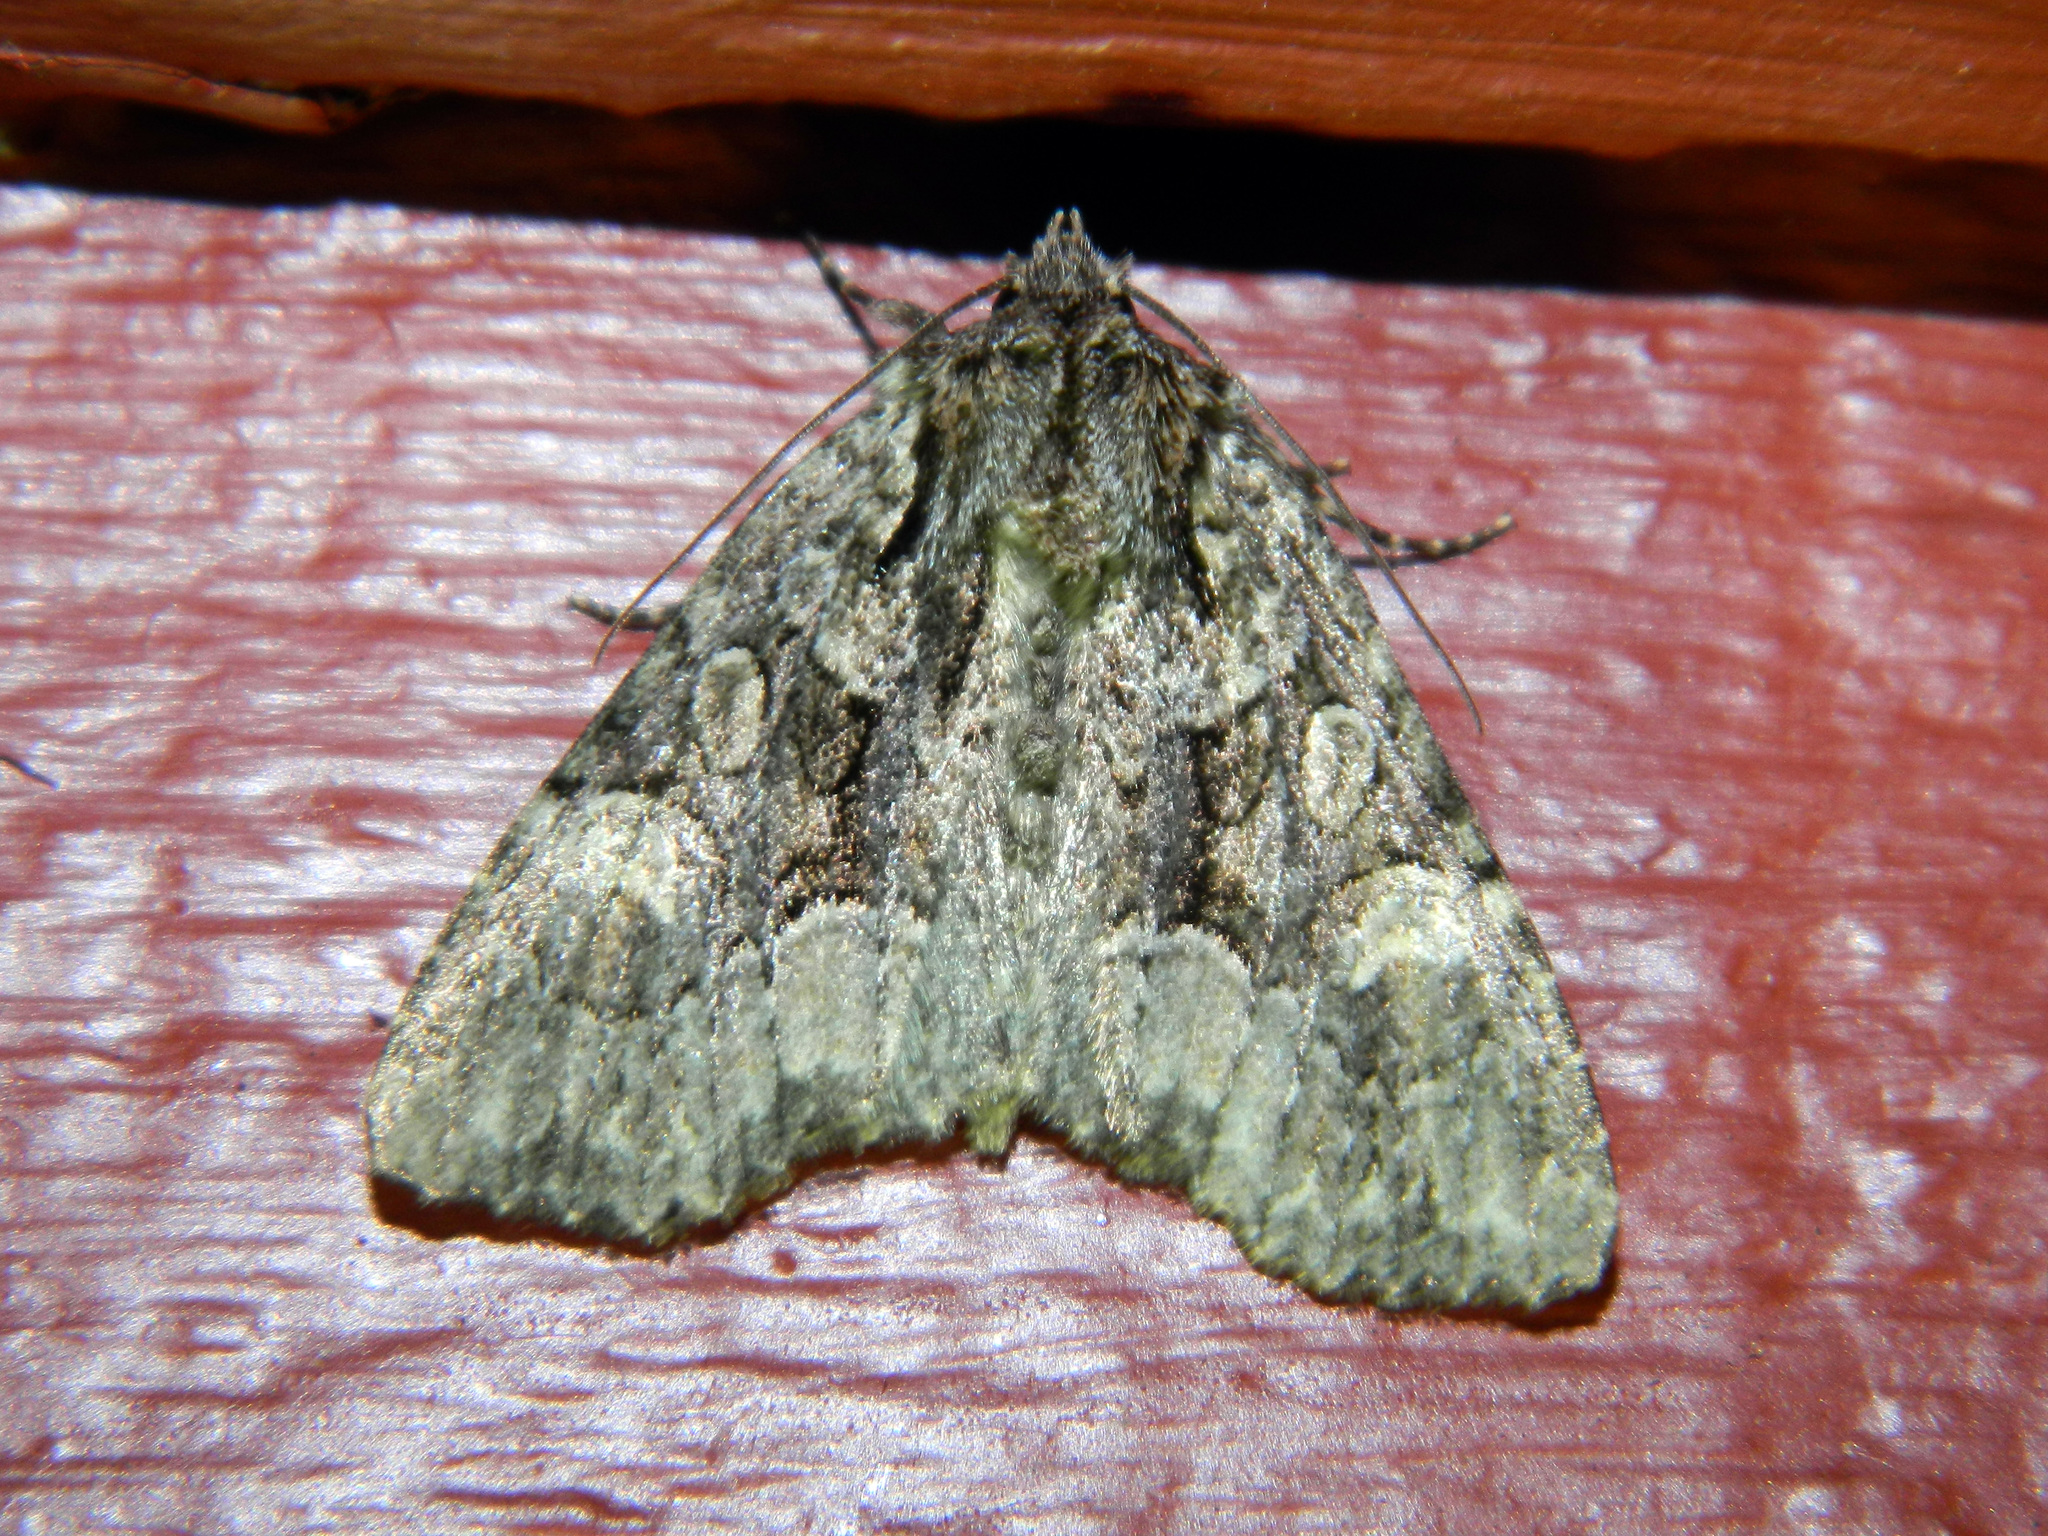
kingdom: Animalia
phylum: Arthropoda
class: Insecta
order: Lepidoptera
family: Noctuidae
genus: Platypolia
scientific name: Platypolia mactata
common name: Adorable brocade moth
